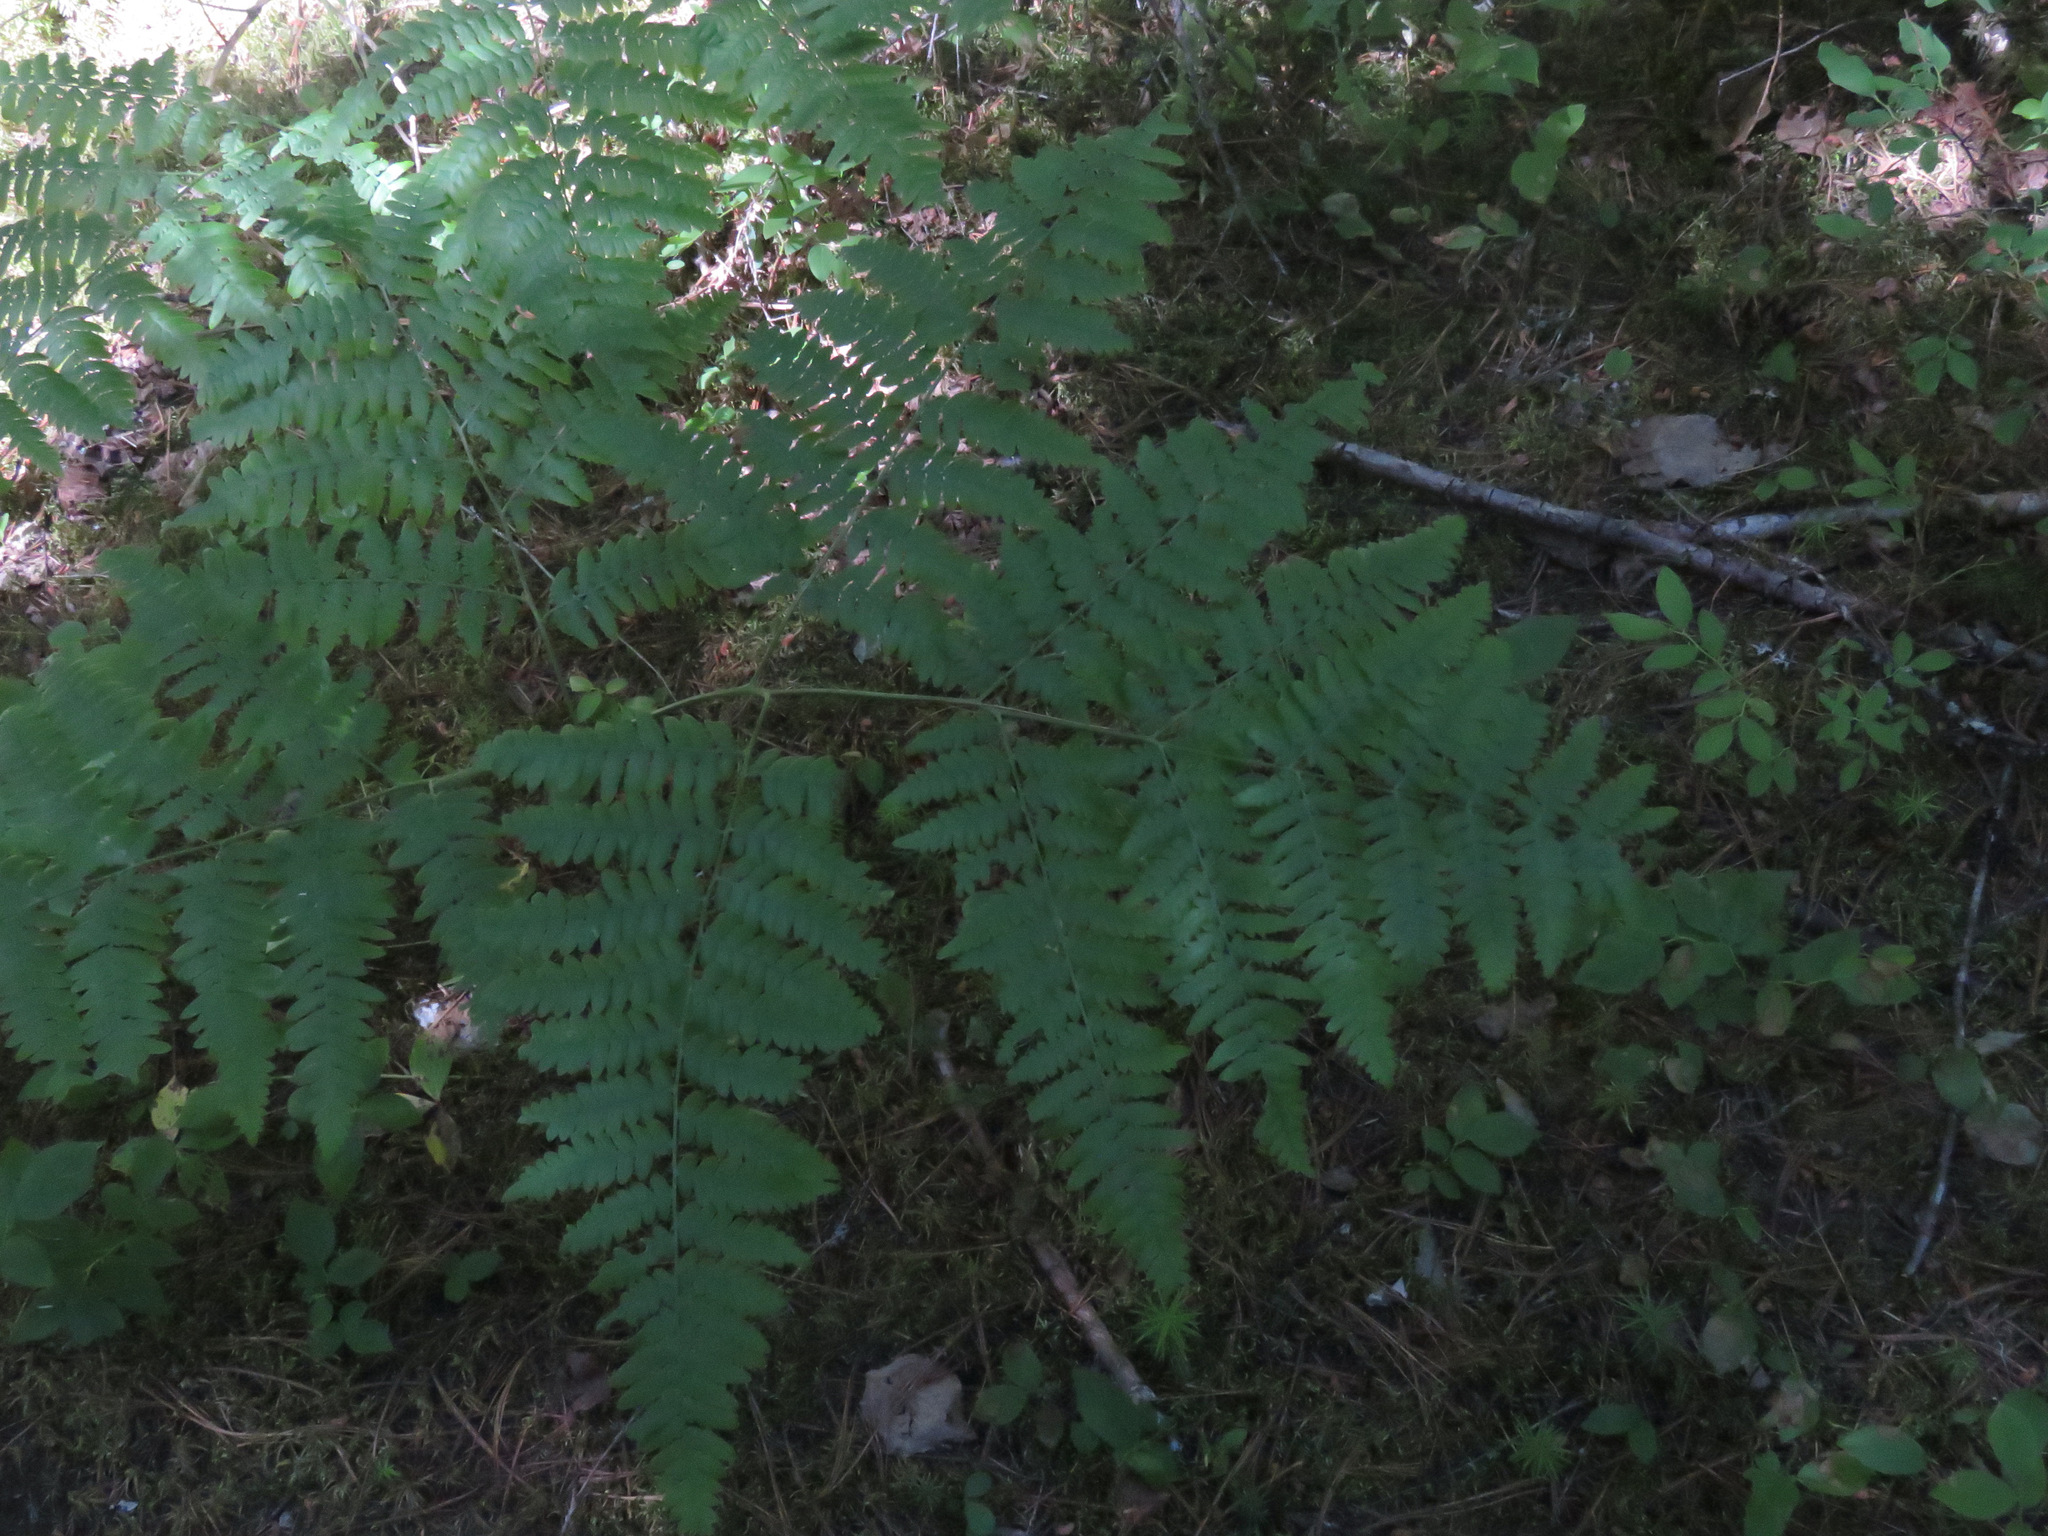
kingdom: Plantae
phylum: Tracheophyta
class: Polypodiopsida
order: Polypodiales
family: Dennstaedtiaceae
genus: Pteridium
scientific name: Pteridium aquilinum
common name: Bracken
